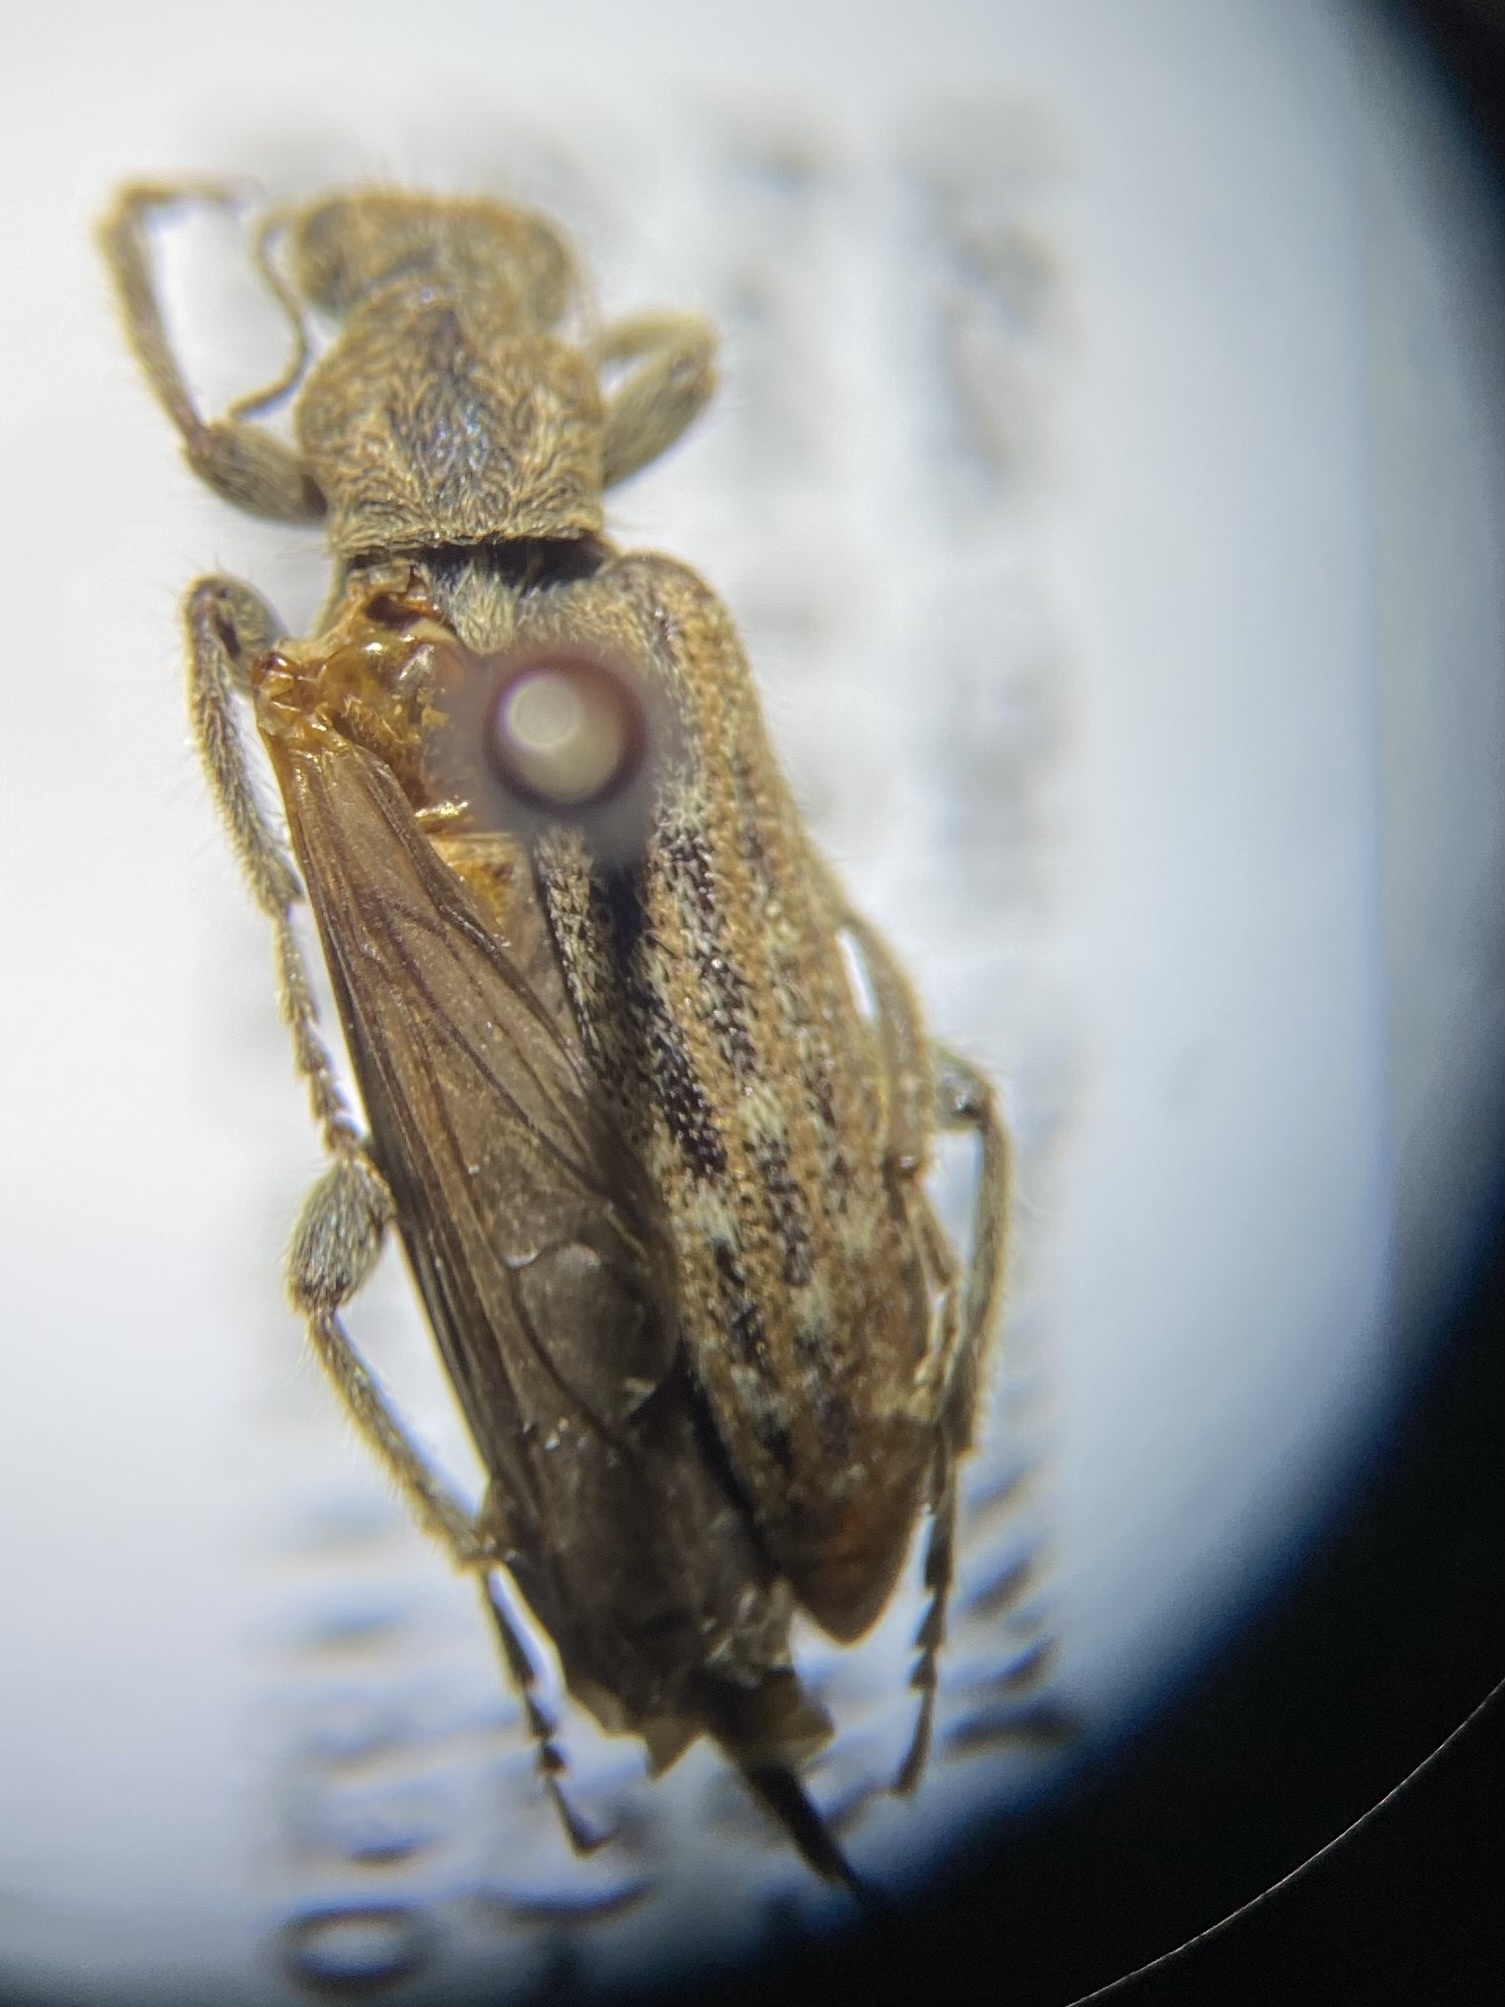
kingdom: Animalia
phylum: Arthropoda
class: Insecta
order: Coleoptera
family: Anthicidae
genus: Retocomus
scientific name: Retocomus wildii
